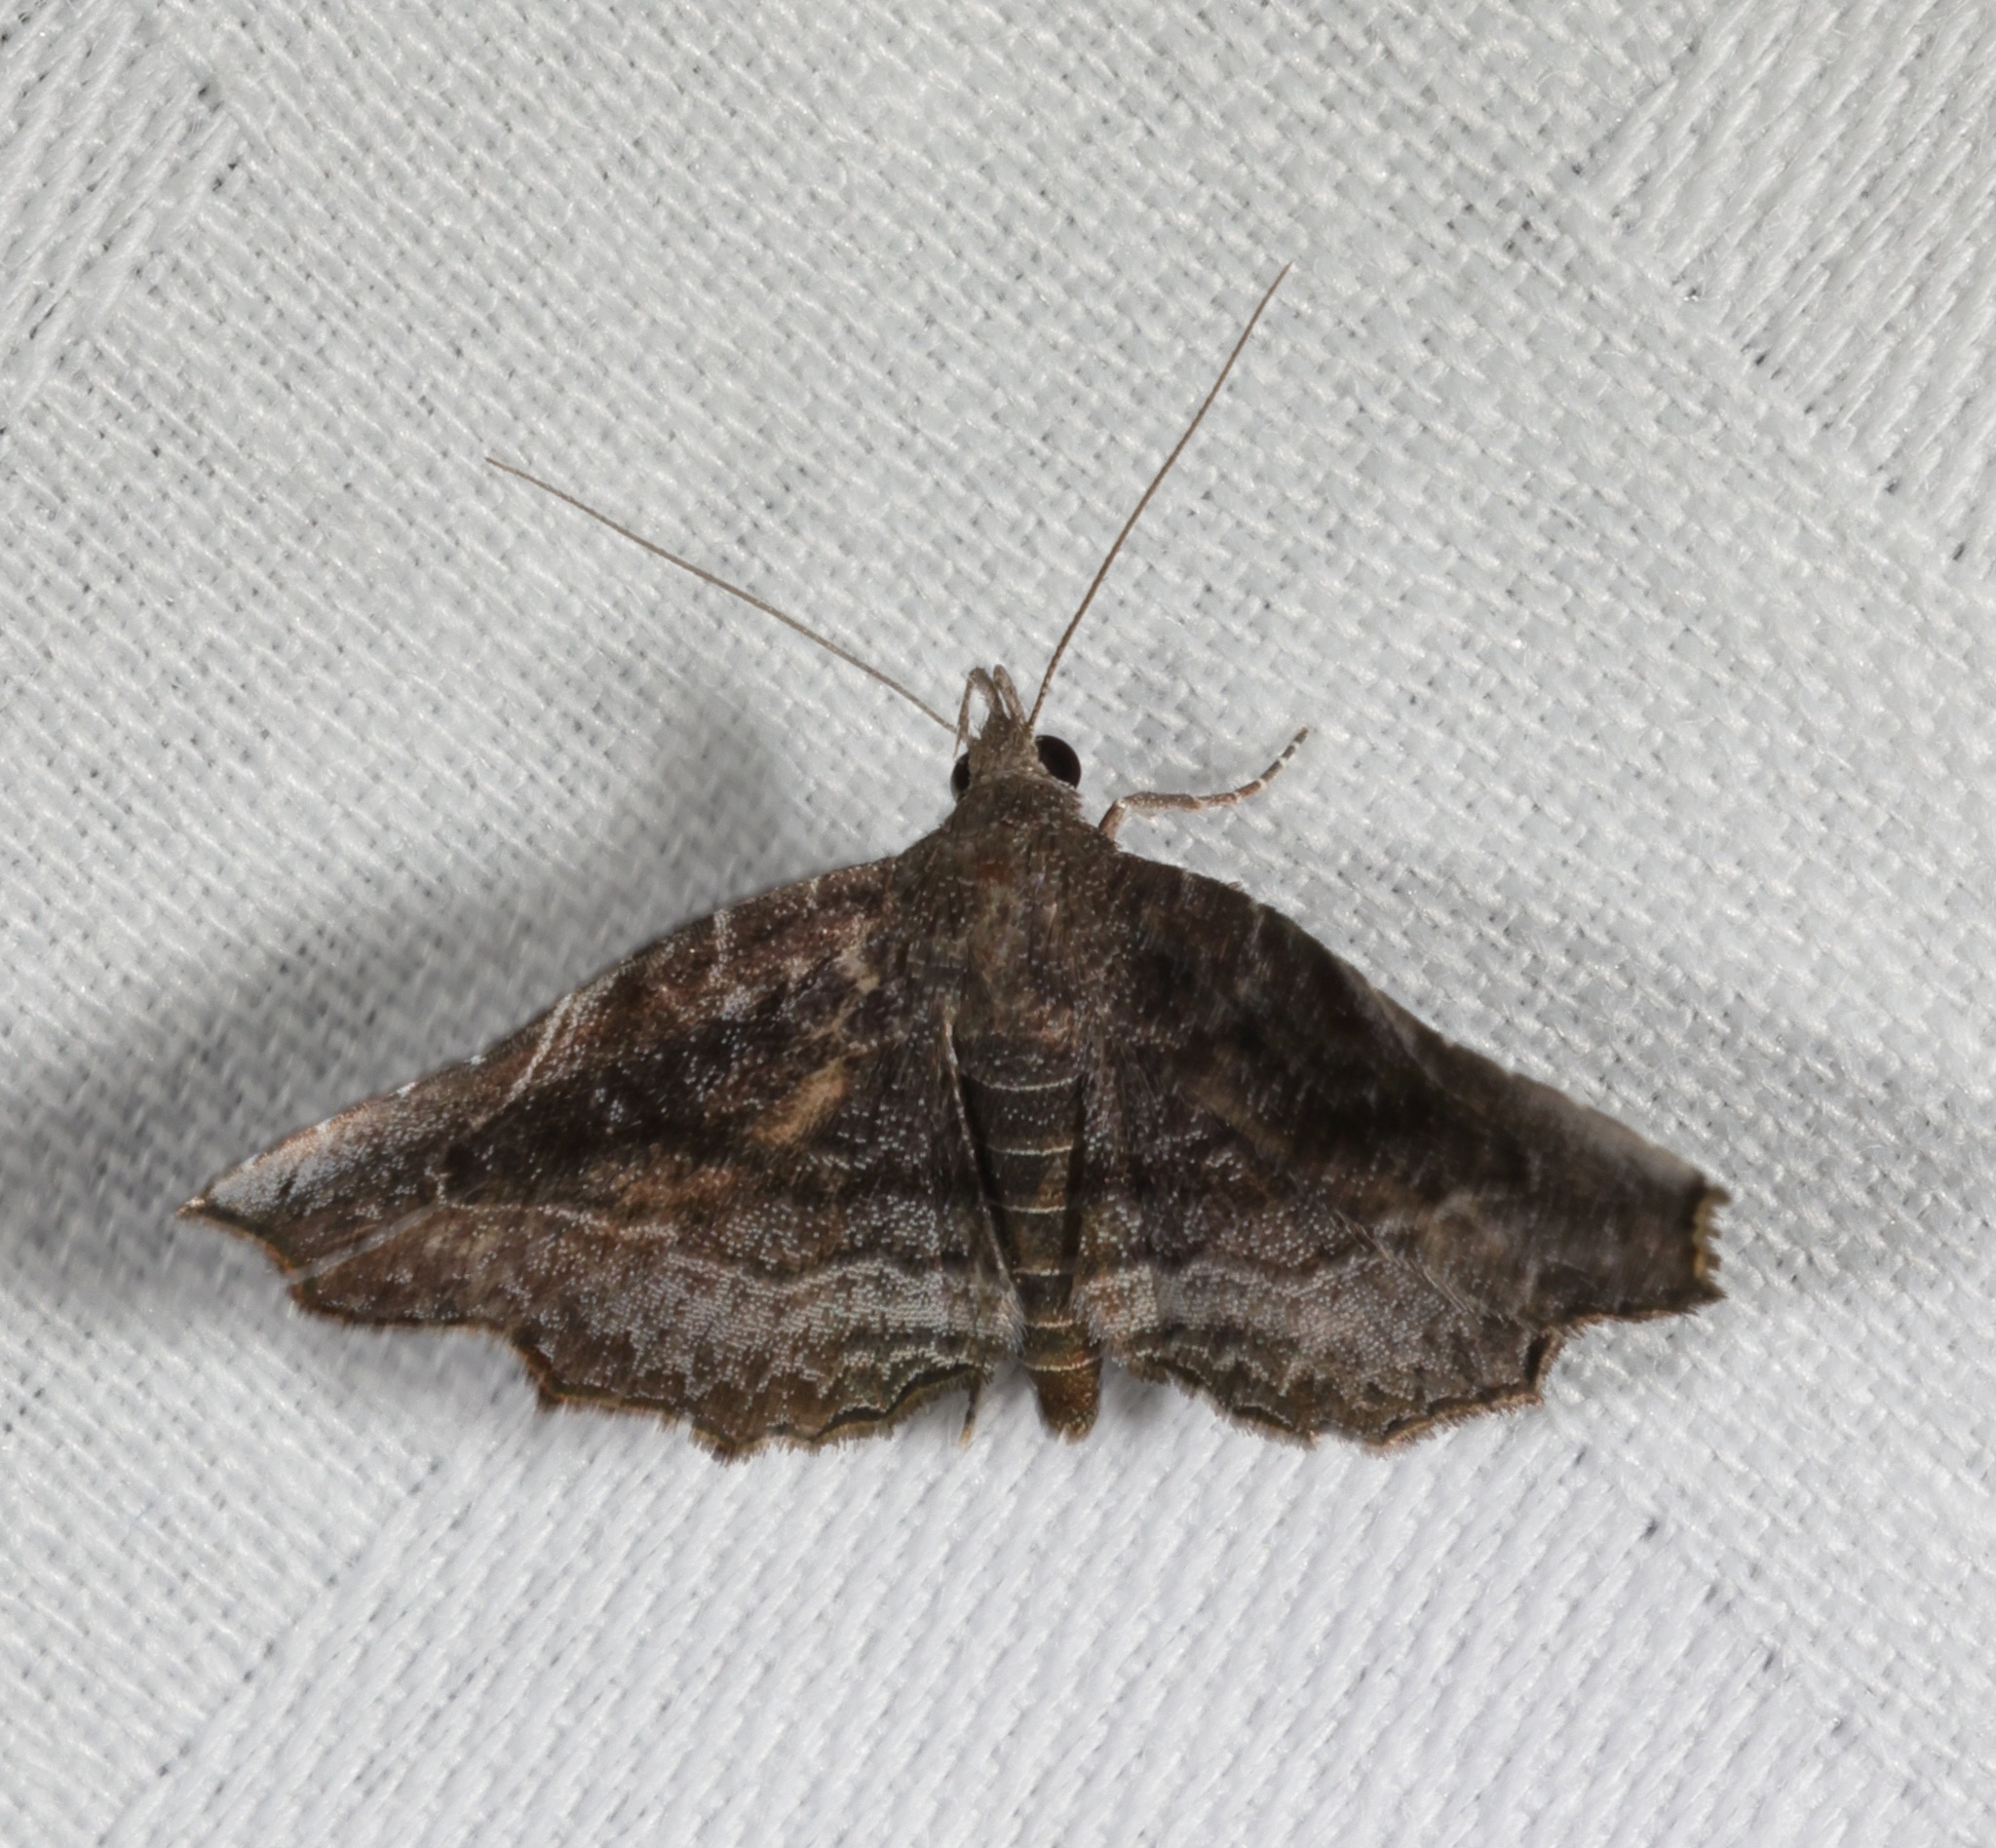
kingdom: Animalia
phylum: Arthropoda
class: Insecta
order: Lepidoptera
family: Erebidae
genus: Nagadeba
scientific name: Nagadeba indecoralis
